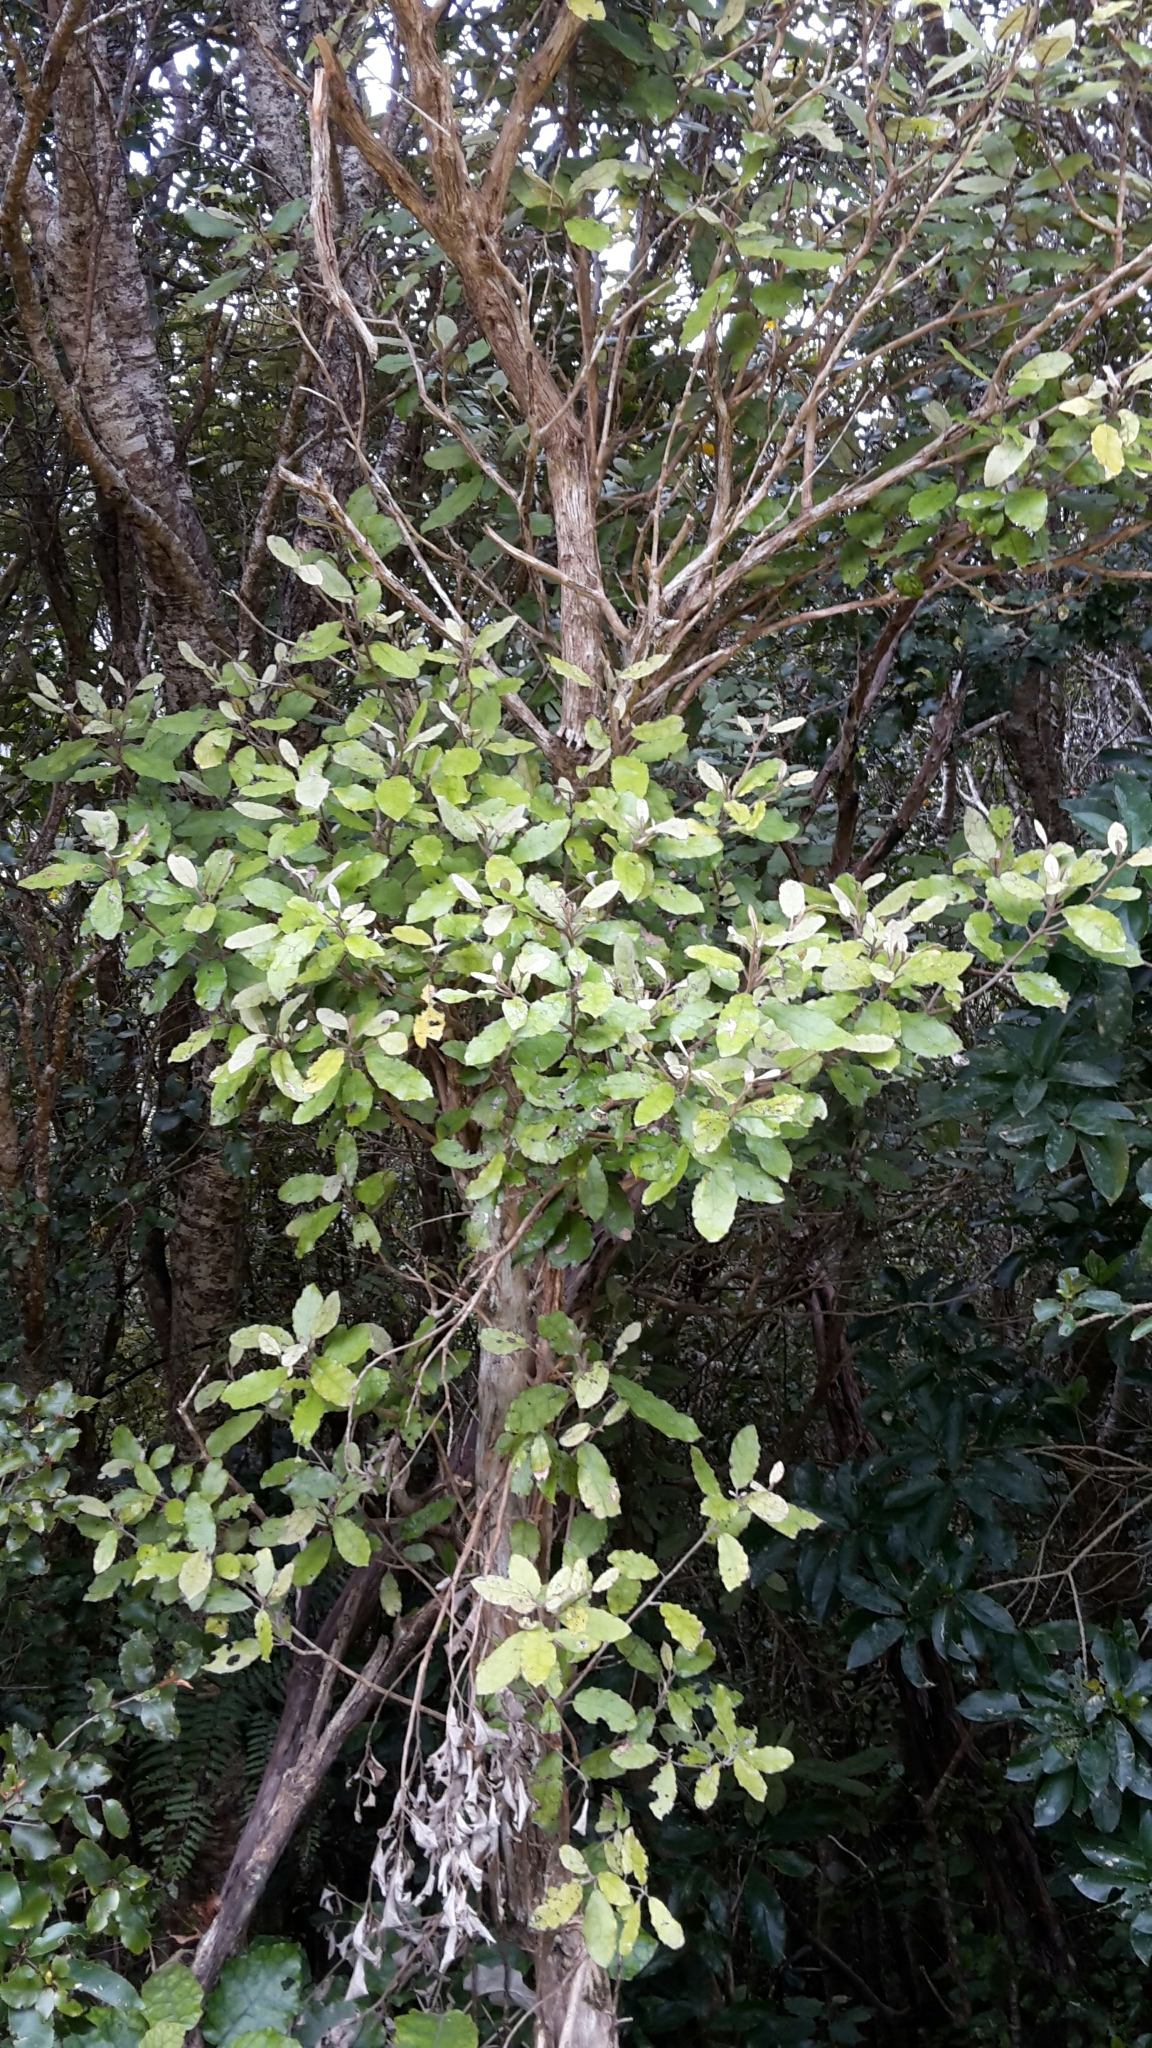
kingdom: Plantae
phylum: Tracheophyta
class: Magnoliopsida
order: Asterales
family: Asteraceae
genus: Olearia
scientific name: Olearia rani
